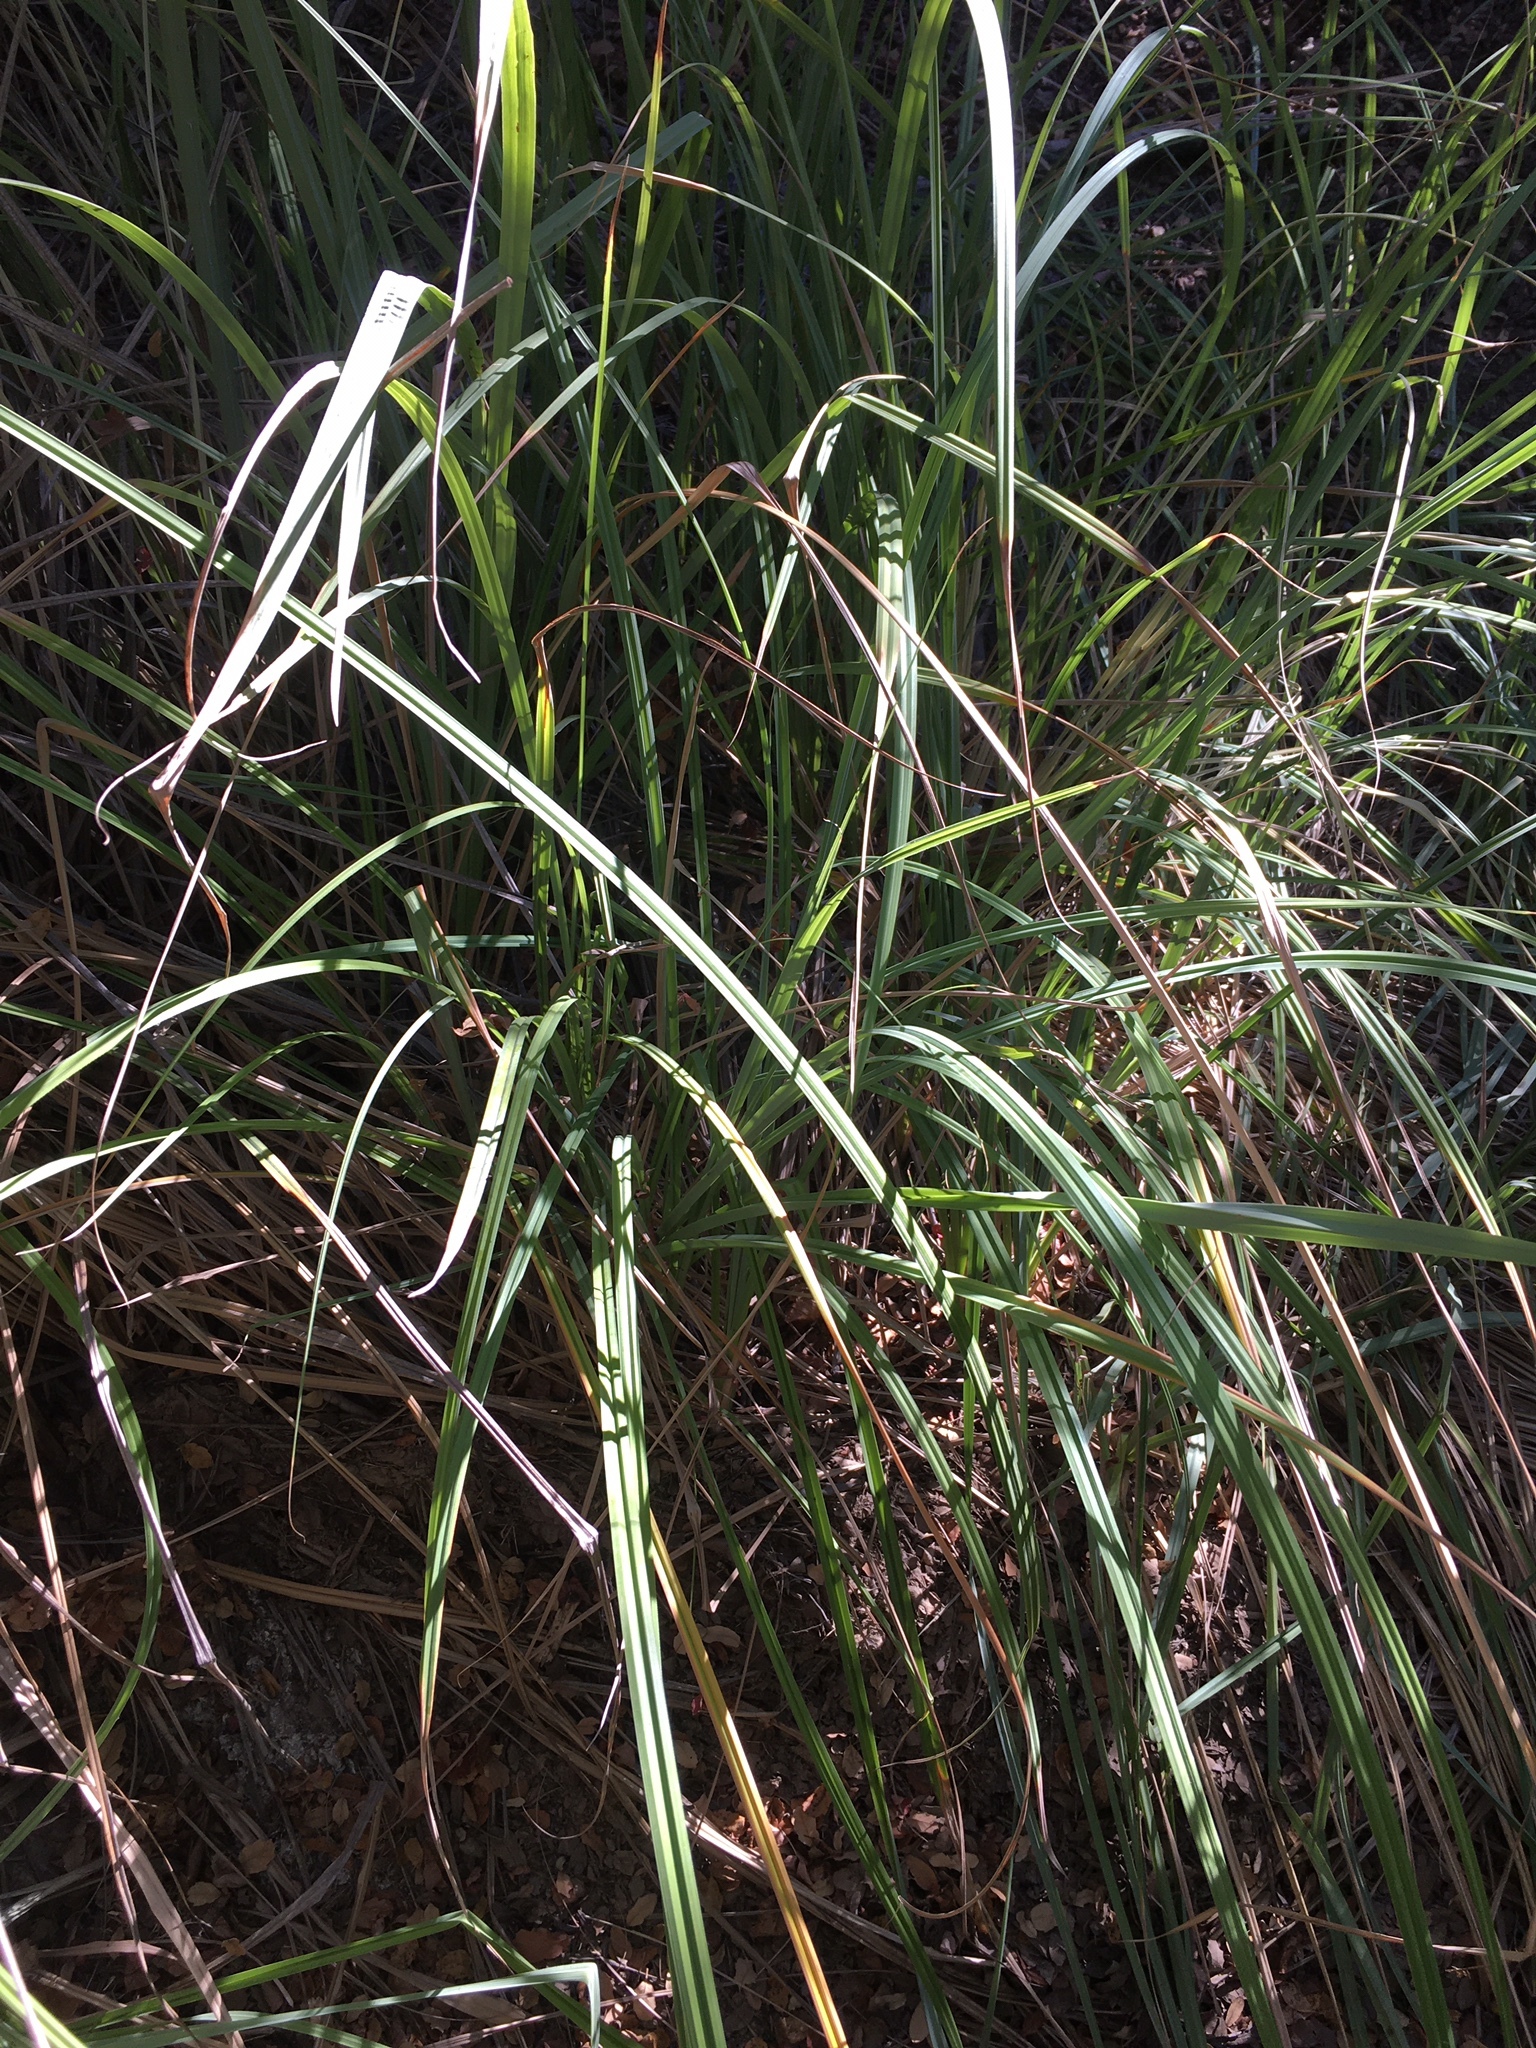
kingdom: Plantae
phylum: Tracheophyta
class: Liliopsida
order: Poales
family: Cyperaceae
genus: Carex
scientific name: Carex spissa
